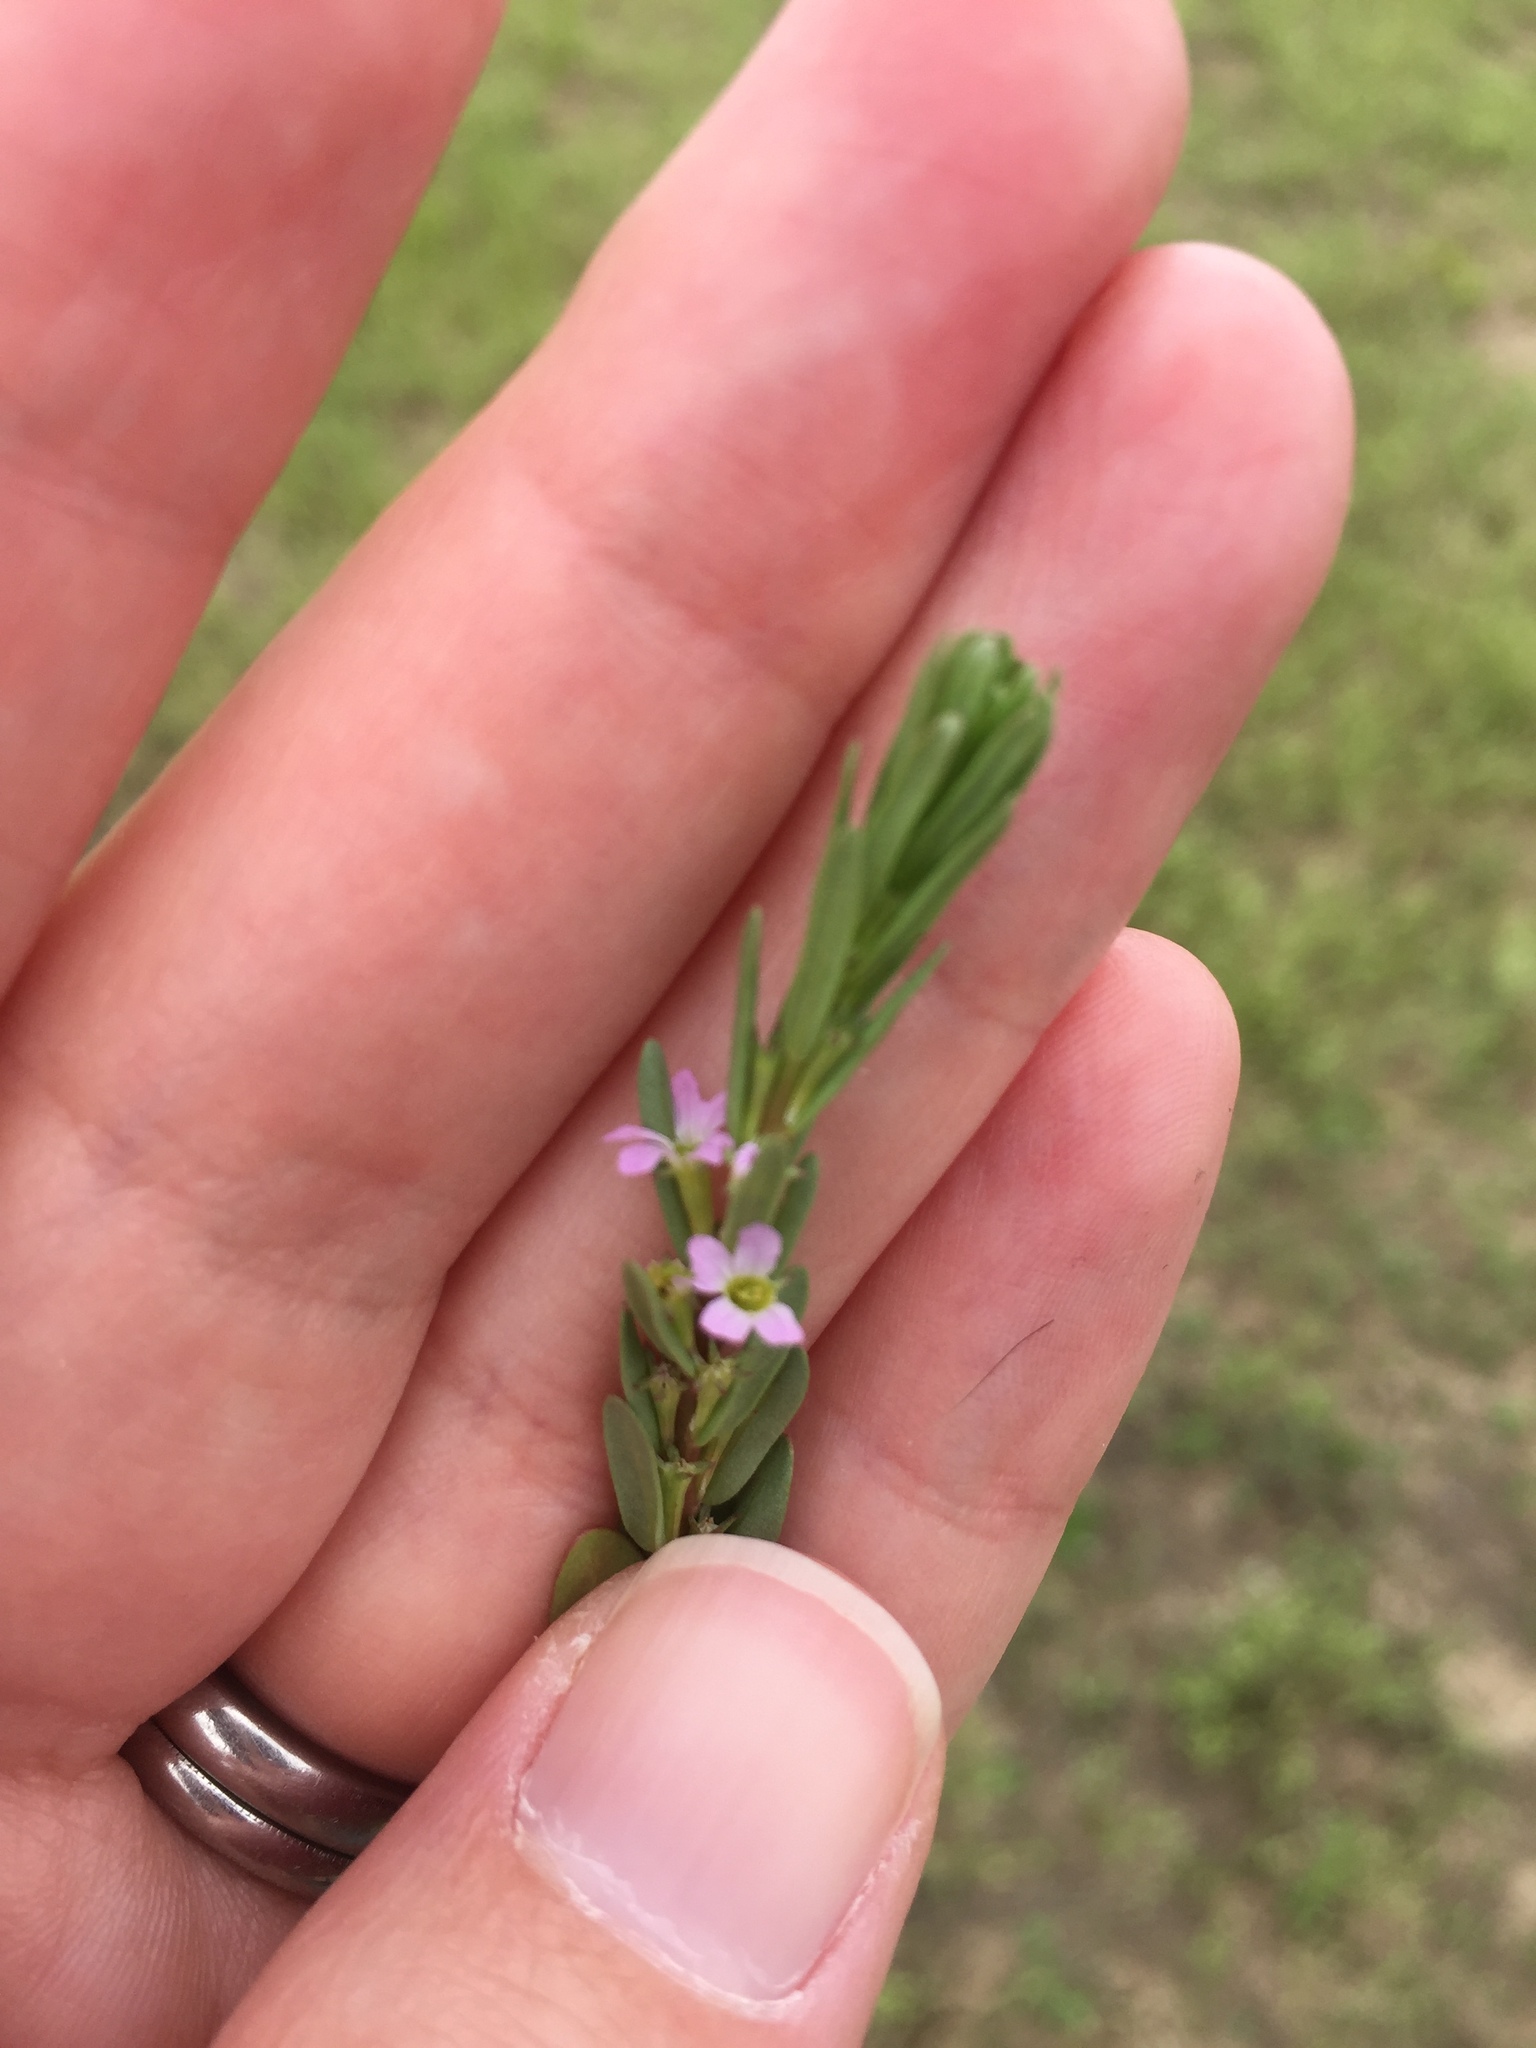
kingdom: Plantae
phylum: Tracheophyta
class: Magnoliopsida
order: Myrtales
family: Lythraceae
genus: Lythrum
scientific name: Lythrum hyssopifolia
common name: Grass-poly
